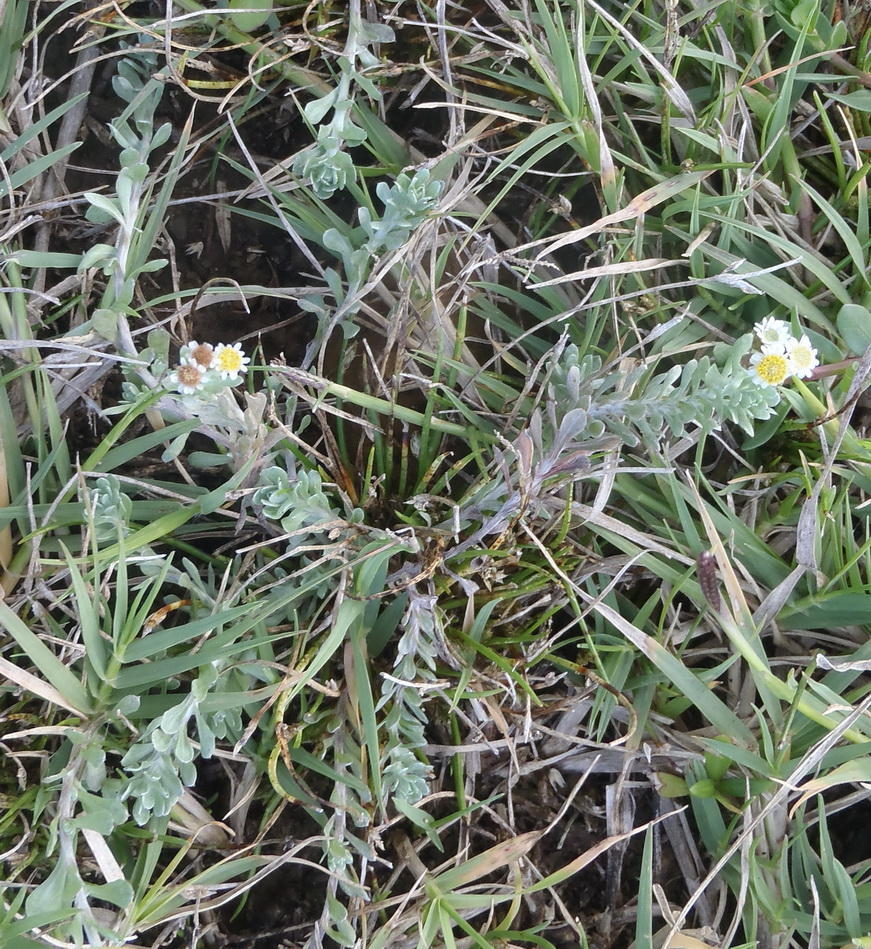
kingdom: Plantae
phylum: Tracheophyta
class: Magnoliopsida
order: Asterales
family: Asteraceae
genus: Gnaphalium
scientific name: Gnaphalium declinatum
